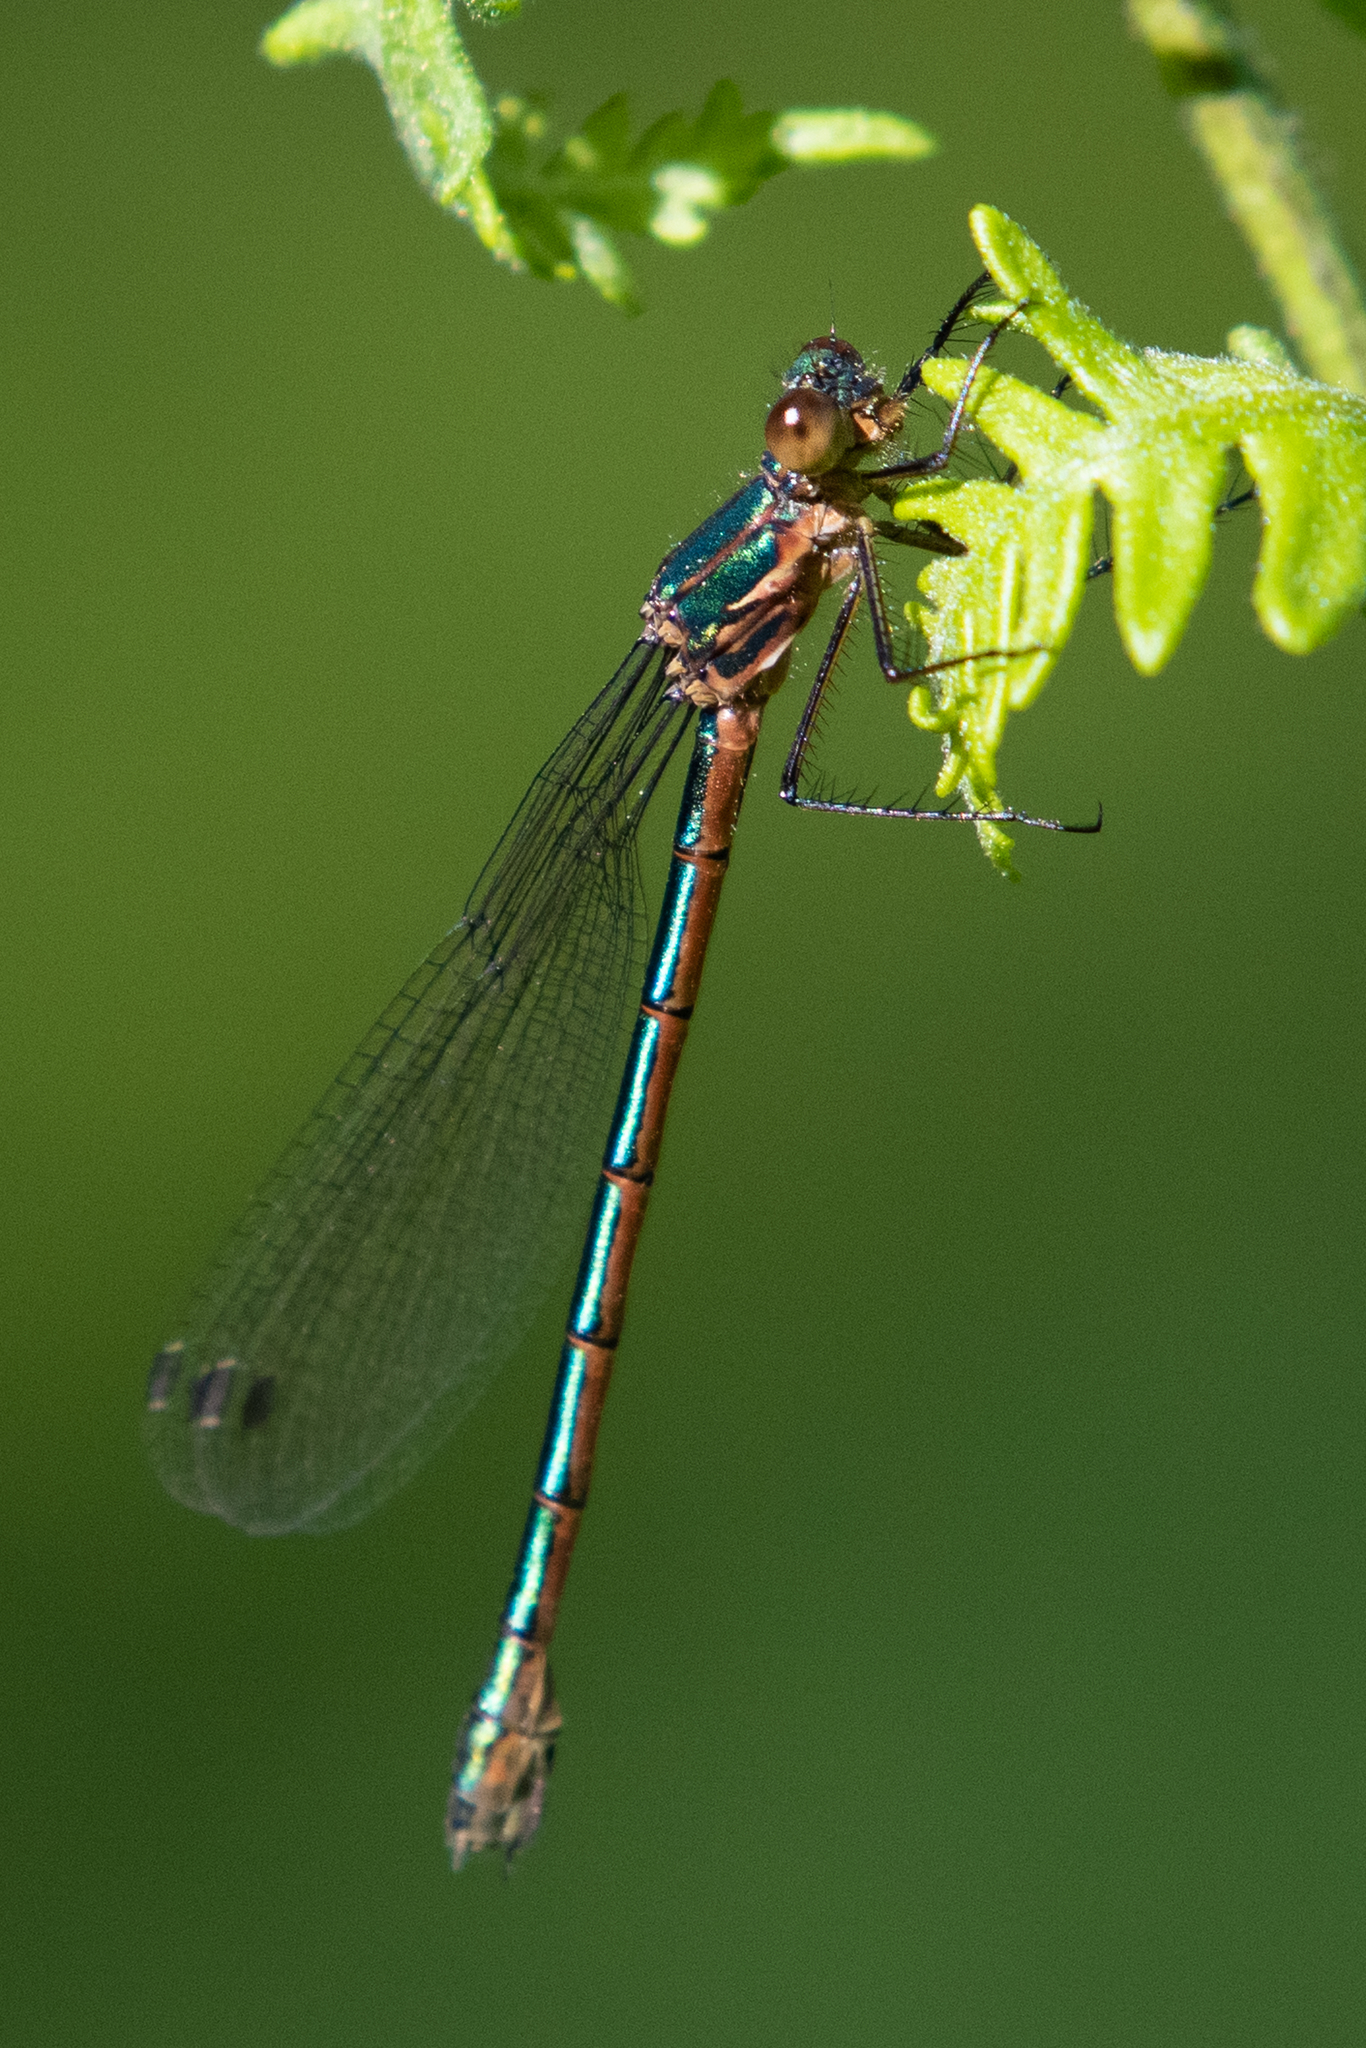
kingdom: Animalia
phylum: Arthropoda
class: Insecta
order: Odonata
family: Lestidae
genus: Lestes
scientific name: Lestes dryas
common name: Scarce emerald damselfly
